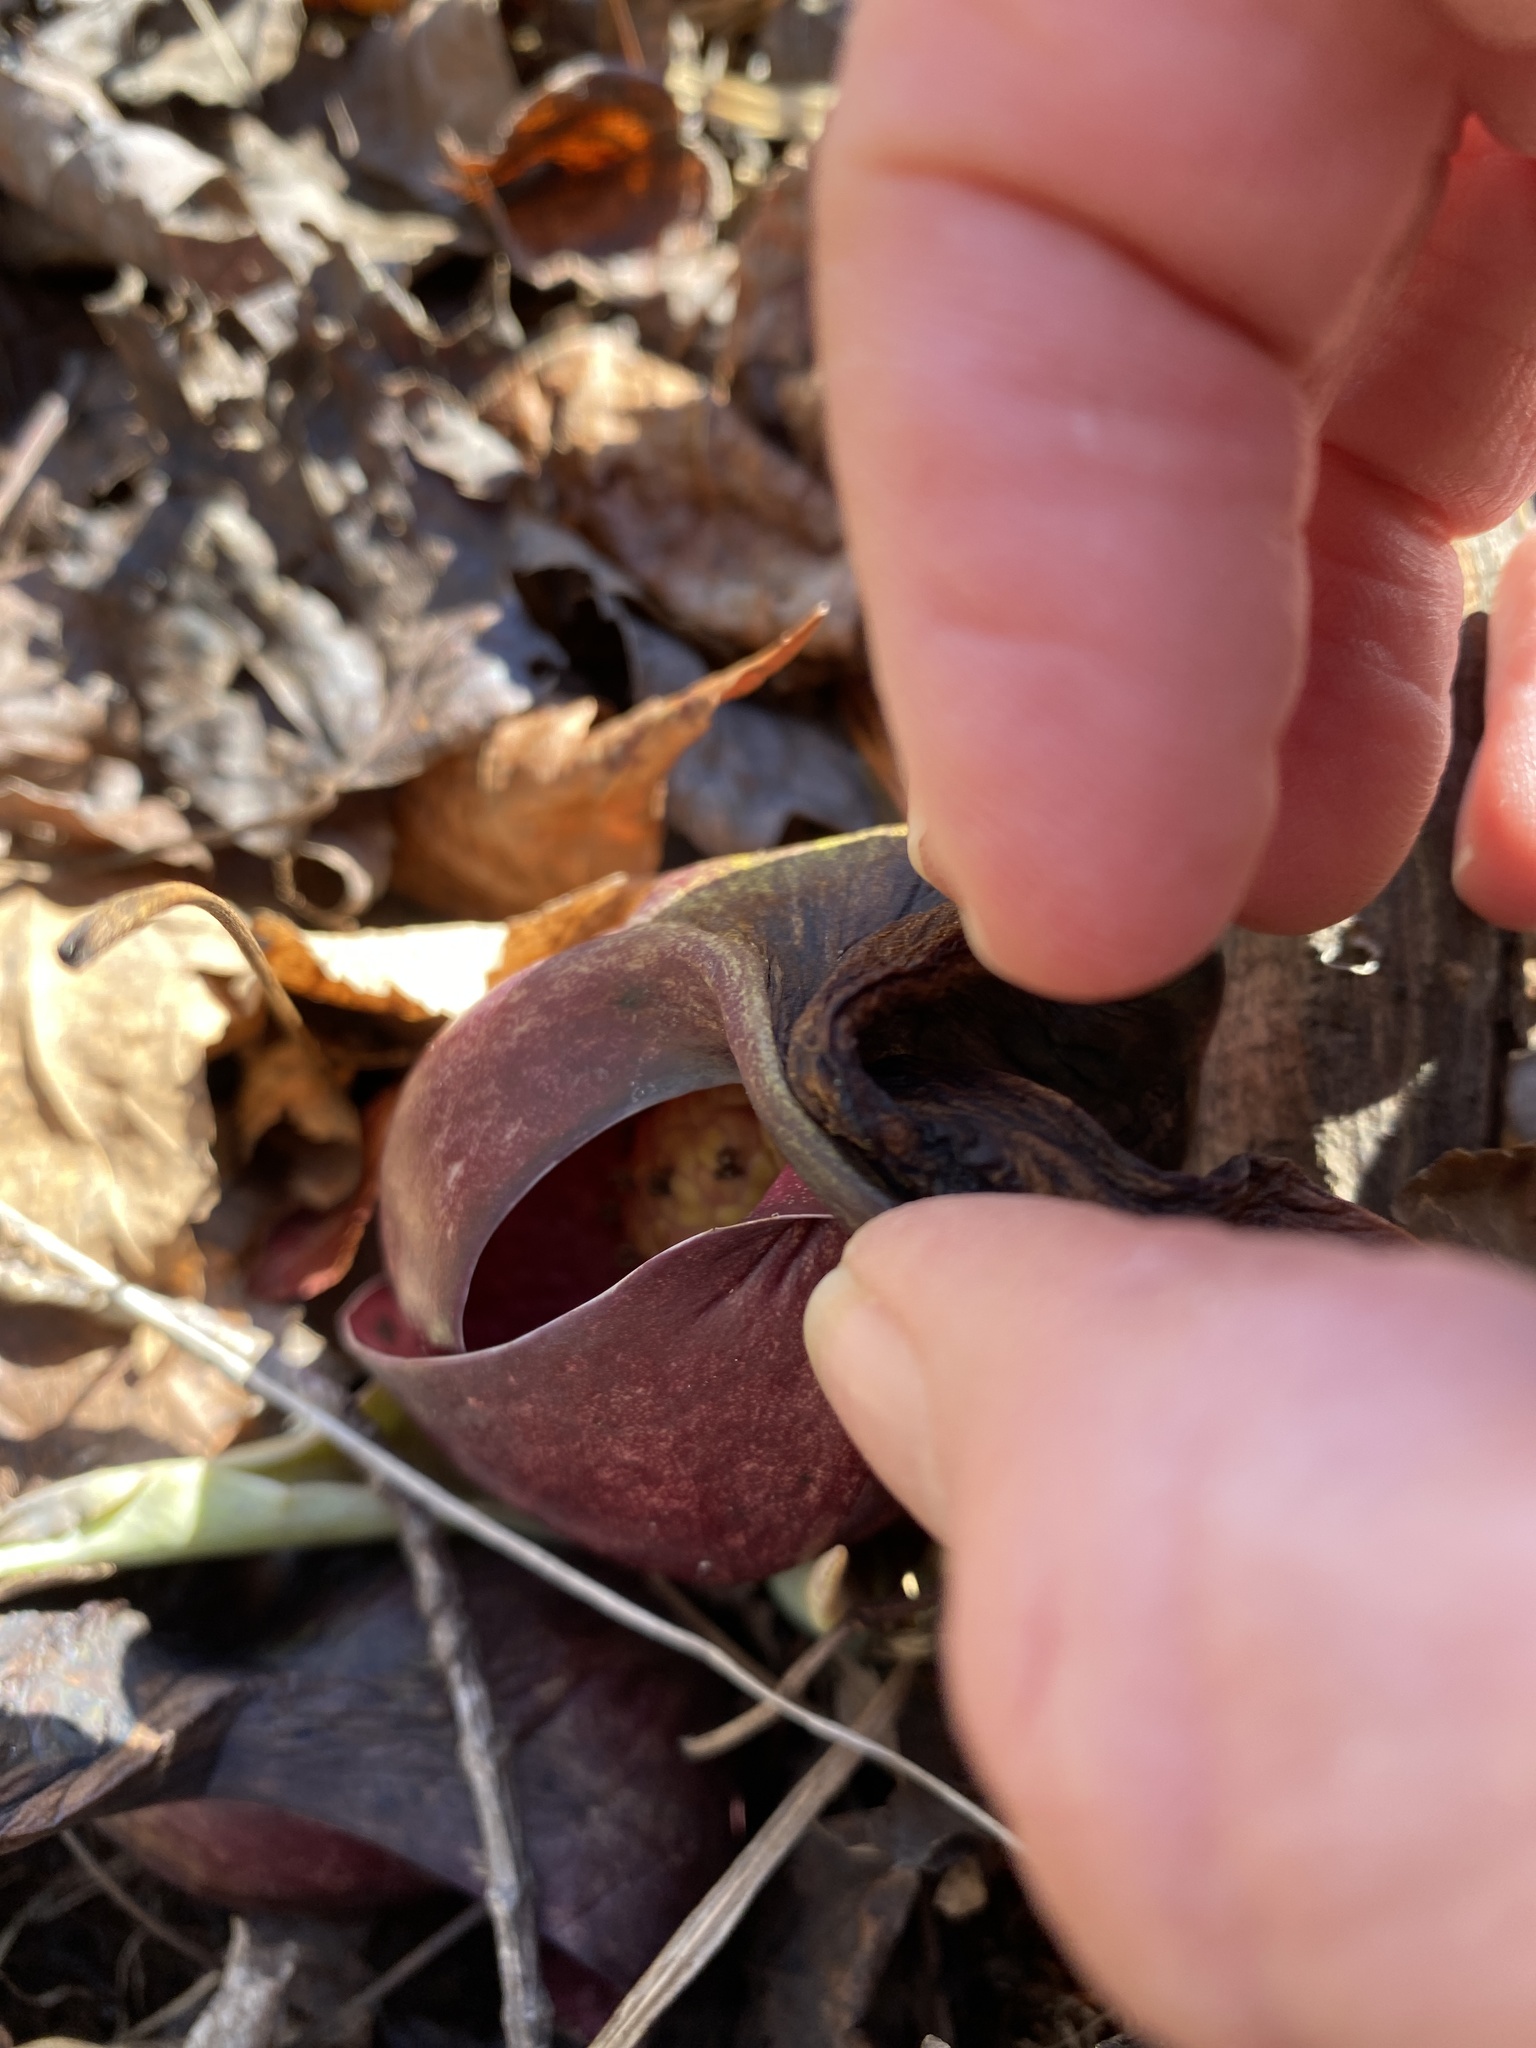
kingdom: Plantae
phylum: Tracheophyta
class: Liliopsida
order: Alismatales
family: Araceae
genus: Symplocarpus
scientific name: Symplocarpus foetidus
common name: Eastern skunk cabbage
